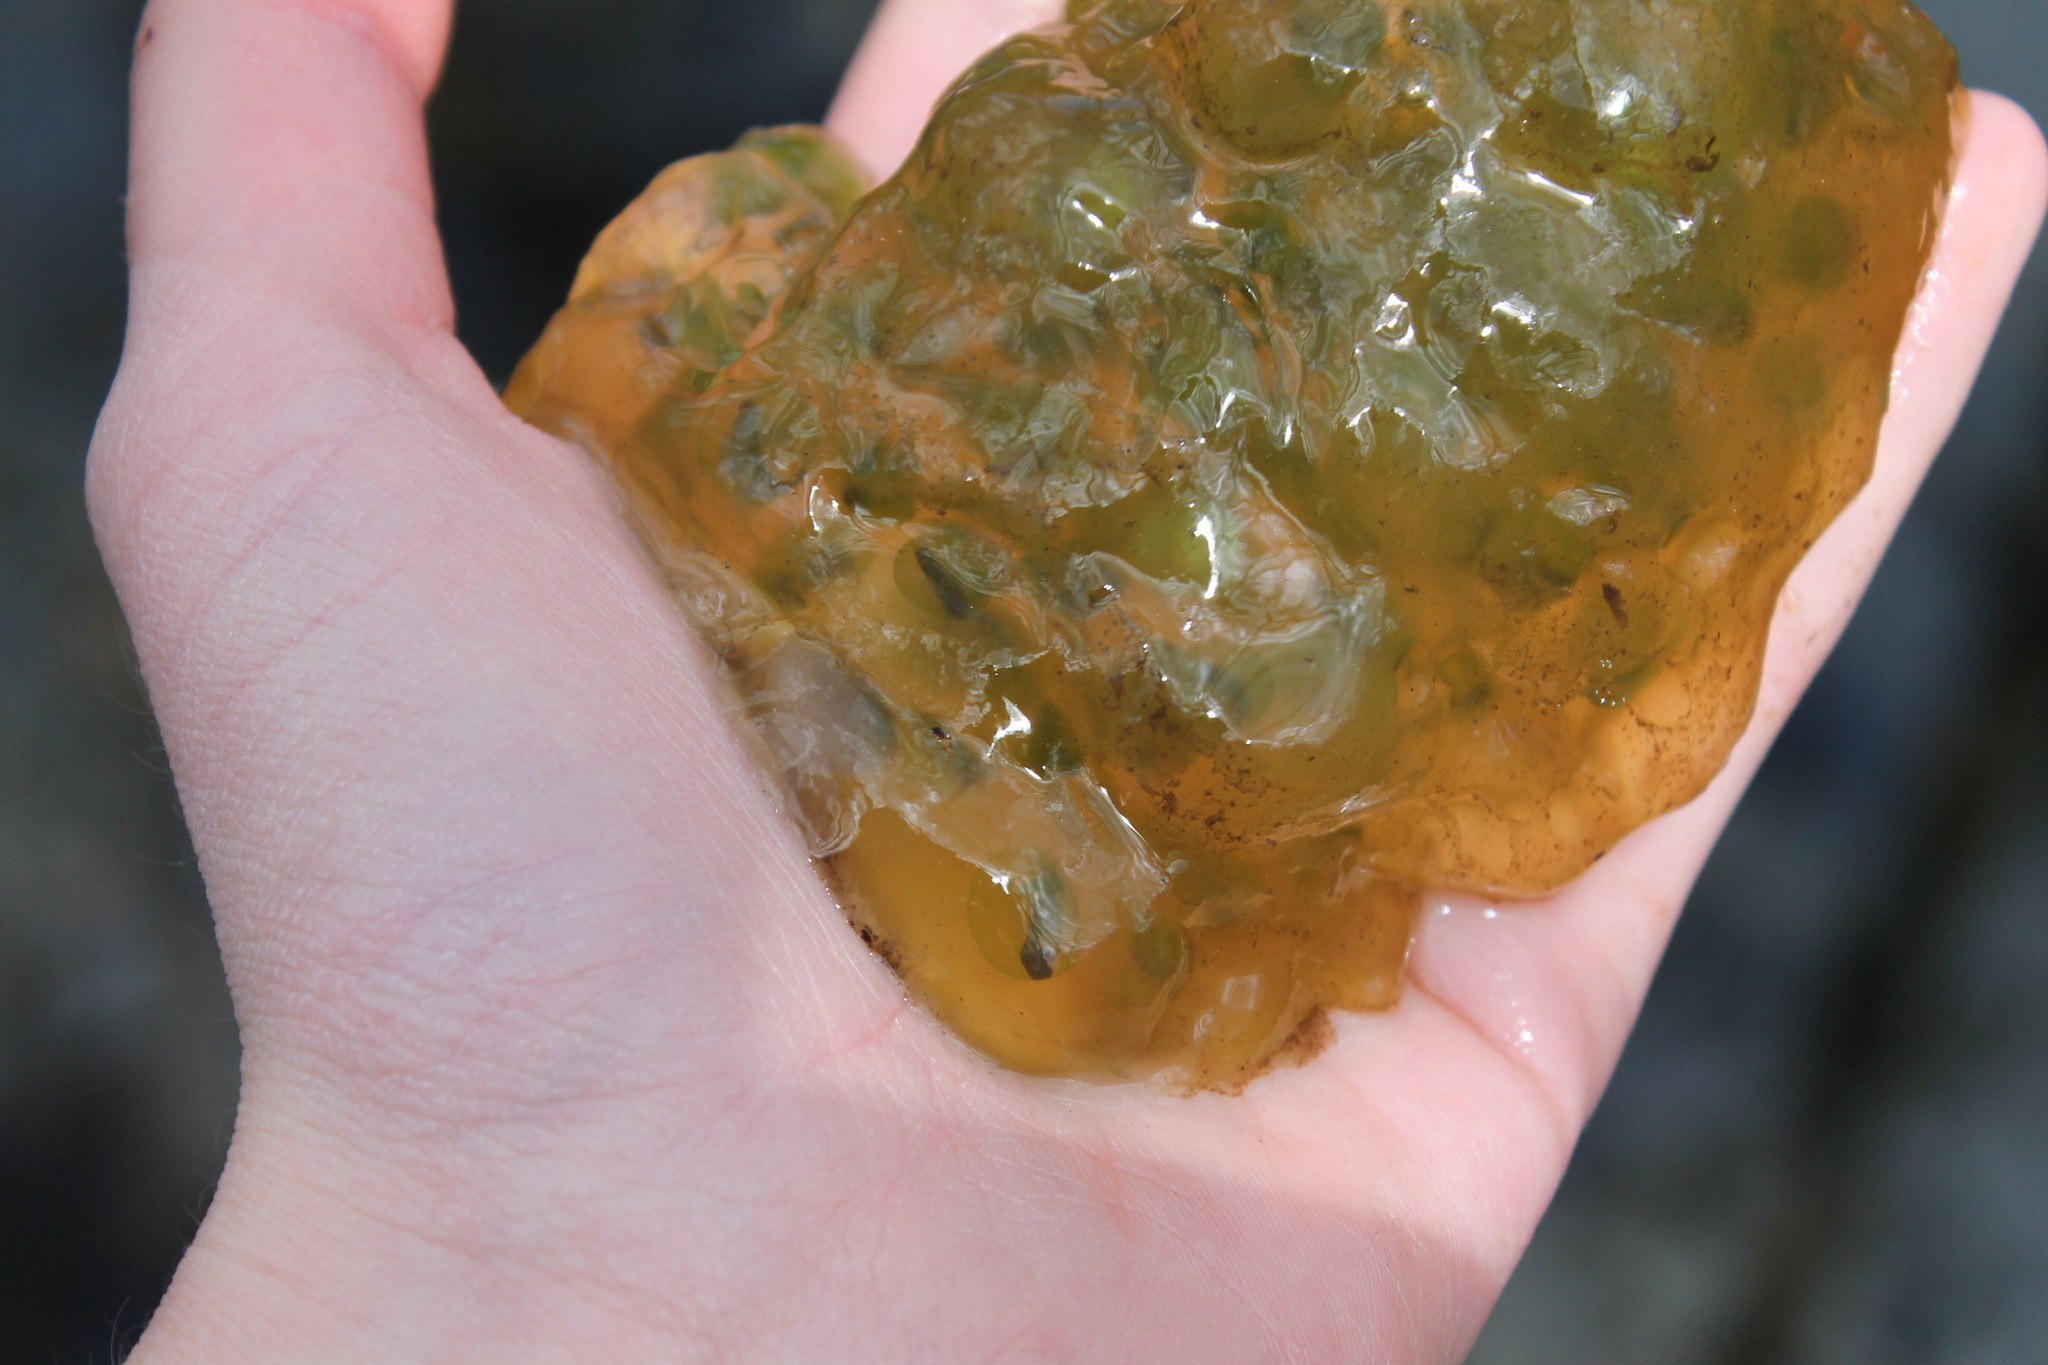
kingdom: Animalia
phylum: Chordata
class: Amphibia
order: Caudata
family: Ambystomatidae
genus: Ambystoma
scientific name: Ambystoma maculatum
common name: Spotted salamander
